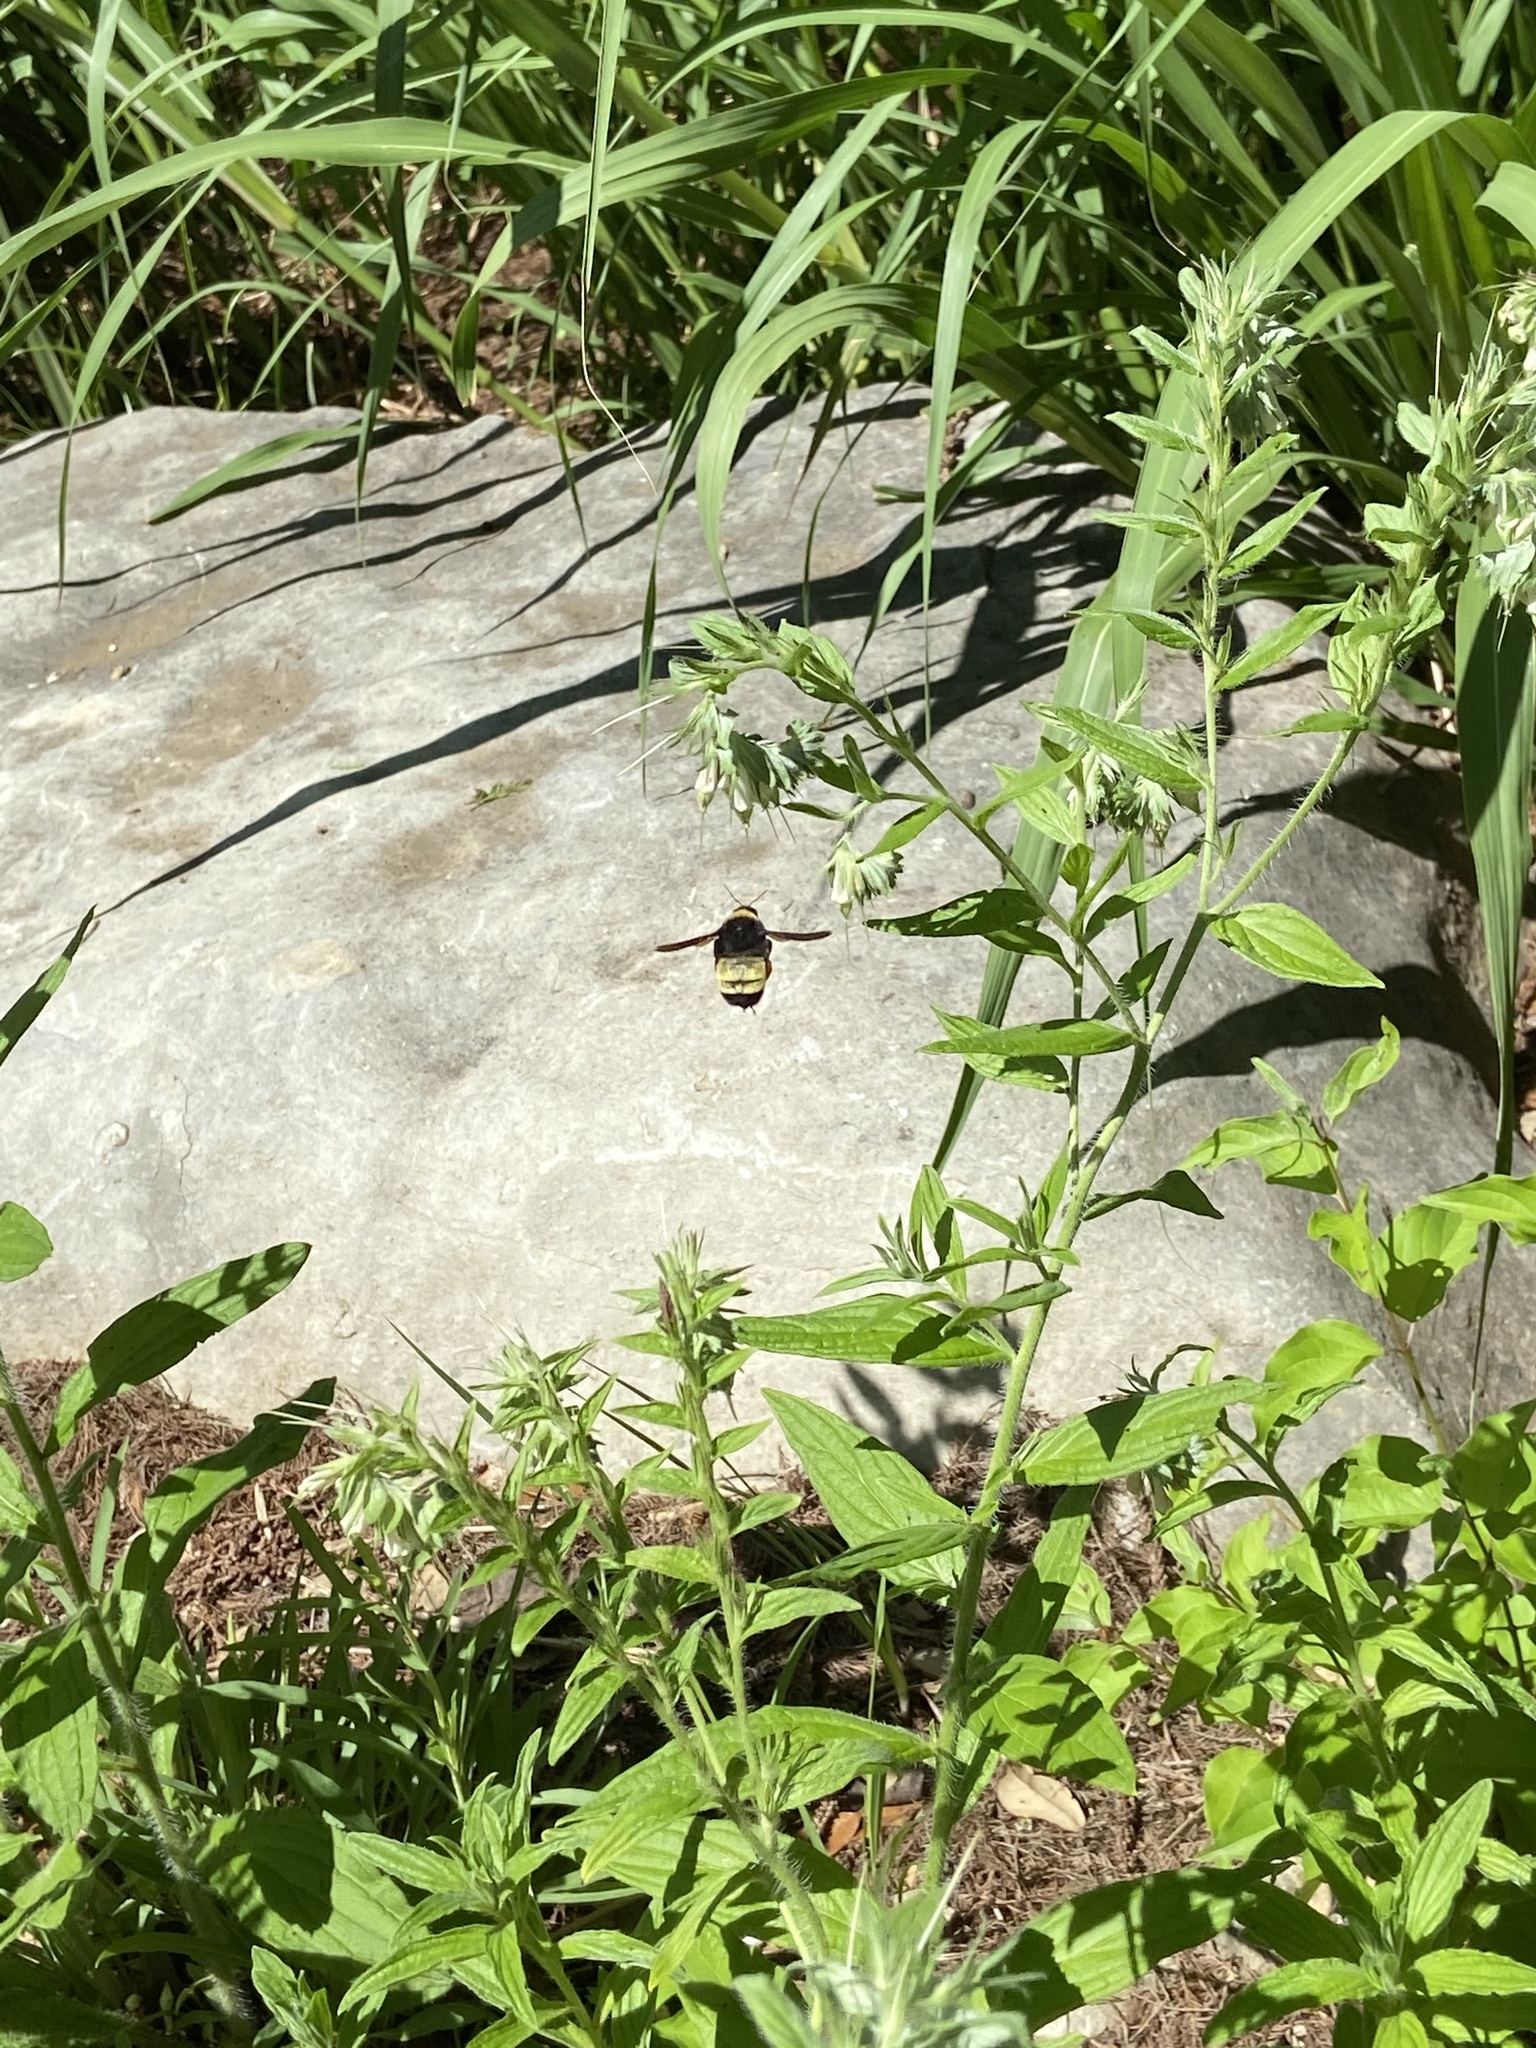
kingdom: Animalia
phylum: Arthropoda
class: Insecta
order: Hymenoptera
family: Apidae
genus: Bombus
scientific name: Bombus pensylvanicus
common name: Bumble bee
